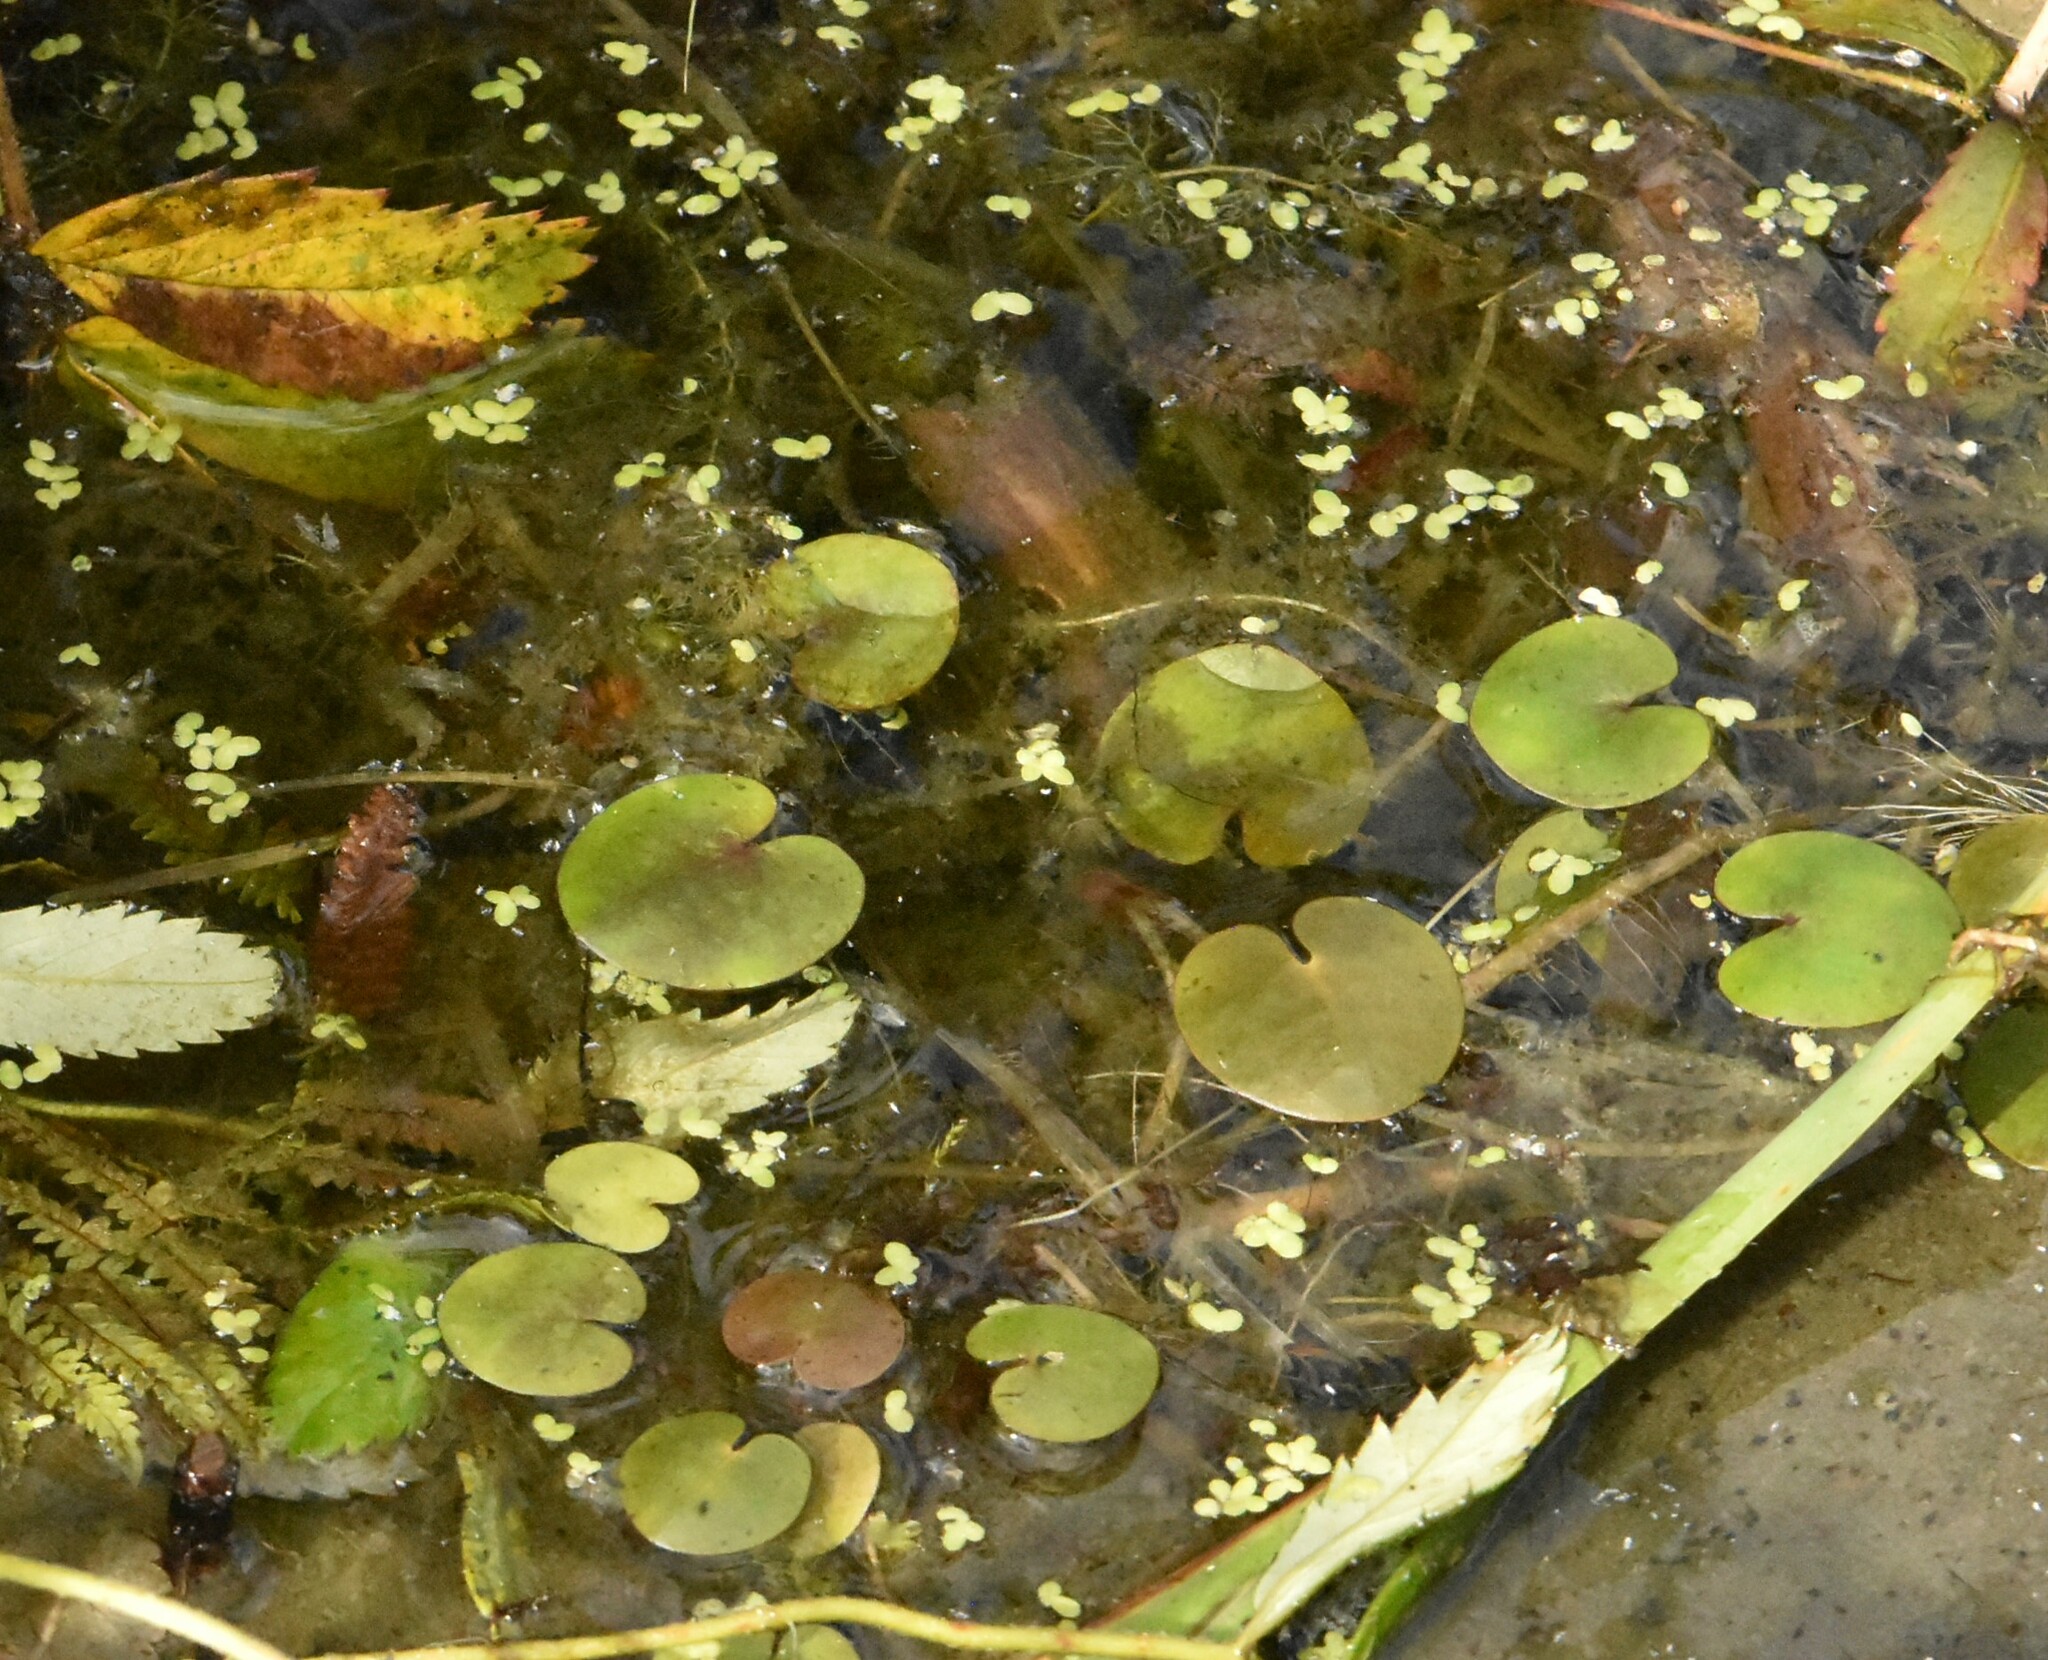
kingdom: Plantae
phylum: Tracheophyta
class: Liliopsida
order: Alismatales
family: Hydrocharitaceae
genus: Hydrocharis
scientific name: Hydrocharis morsus-ranae
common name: Frogbit
